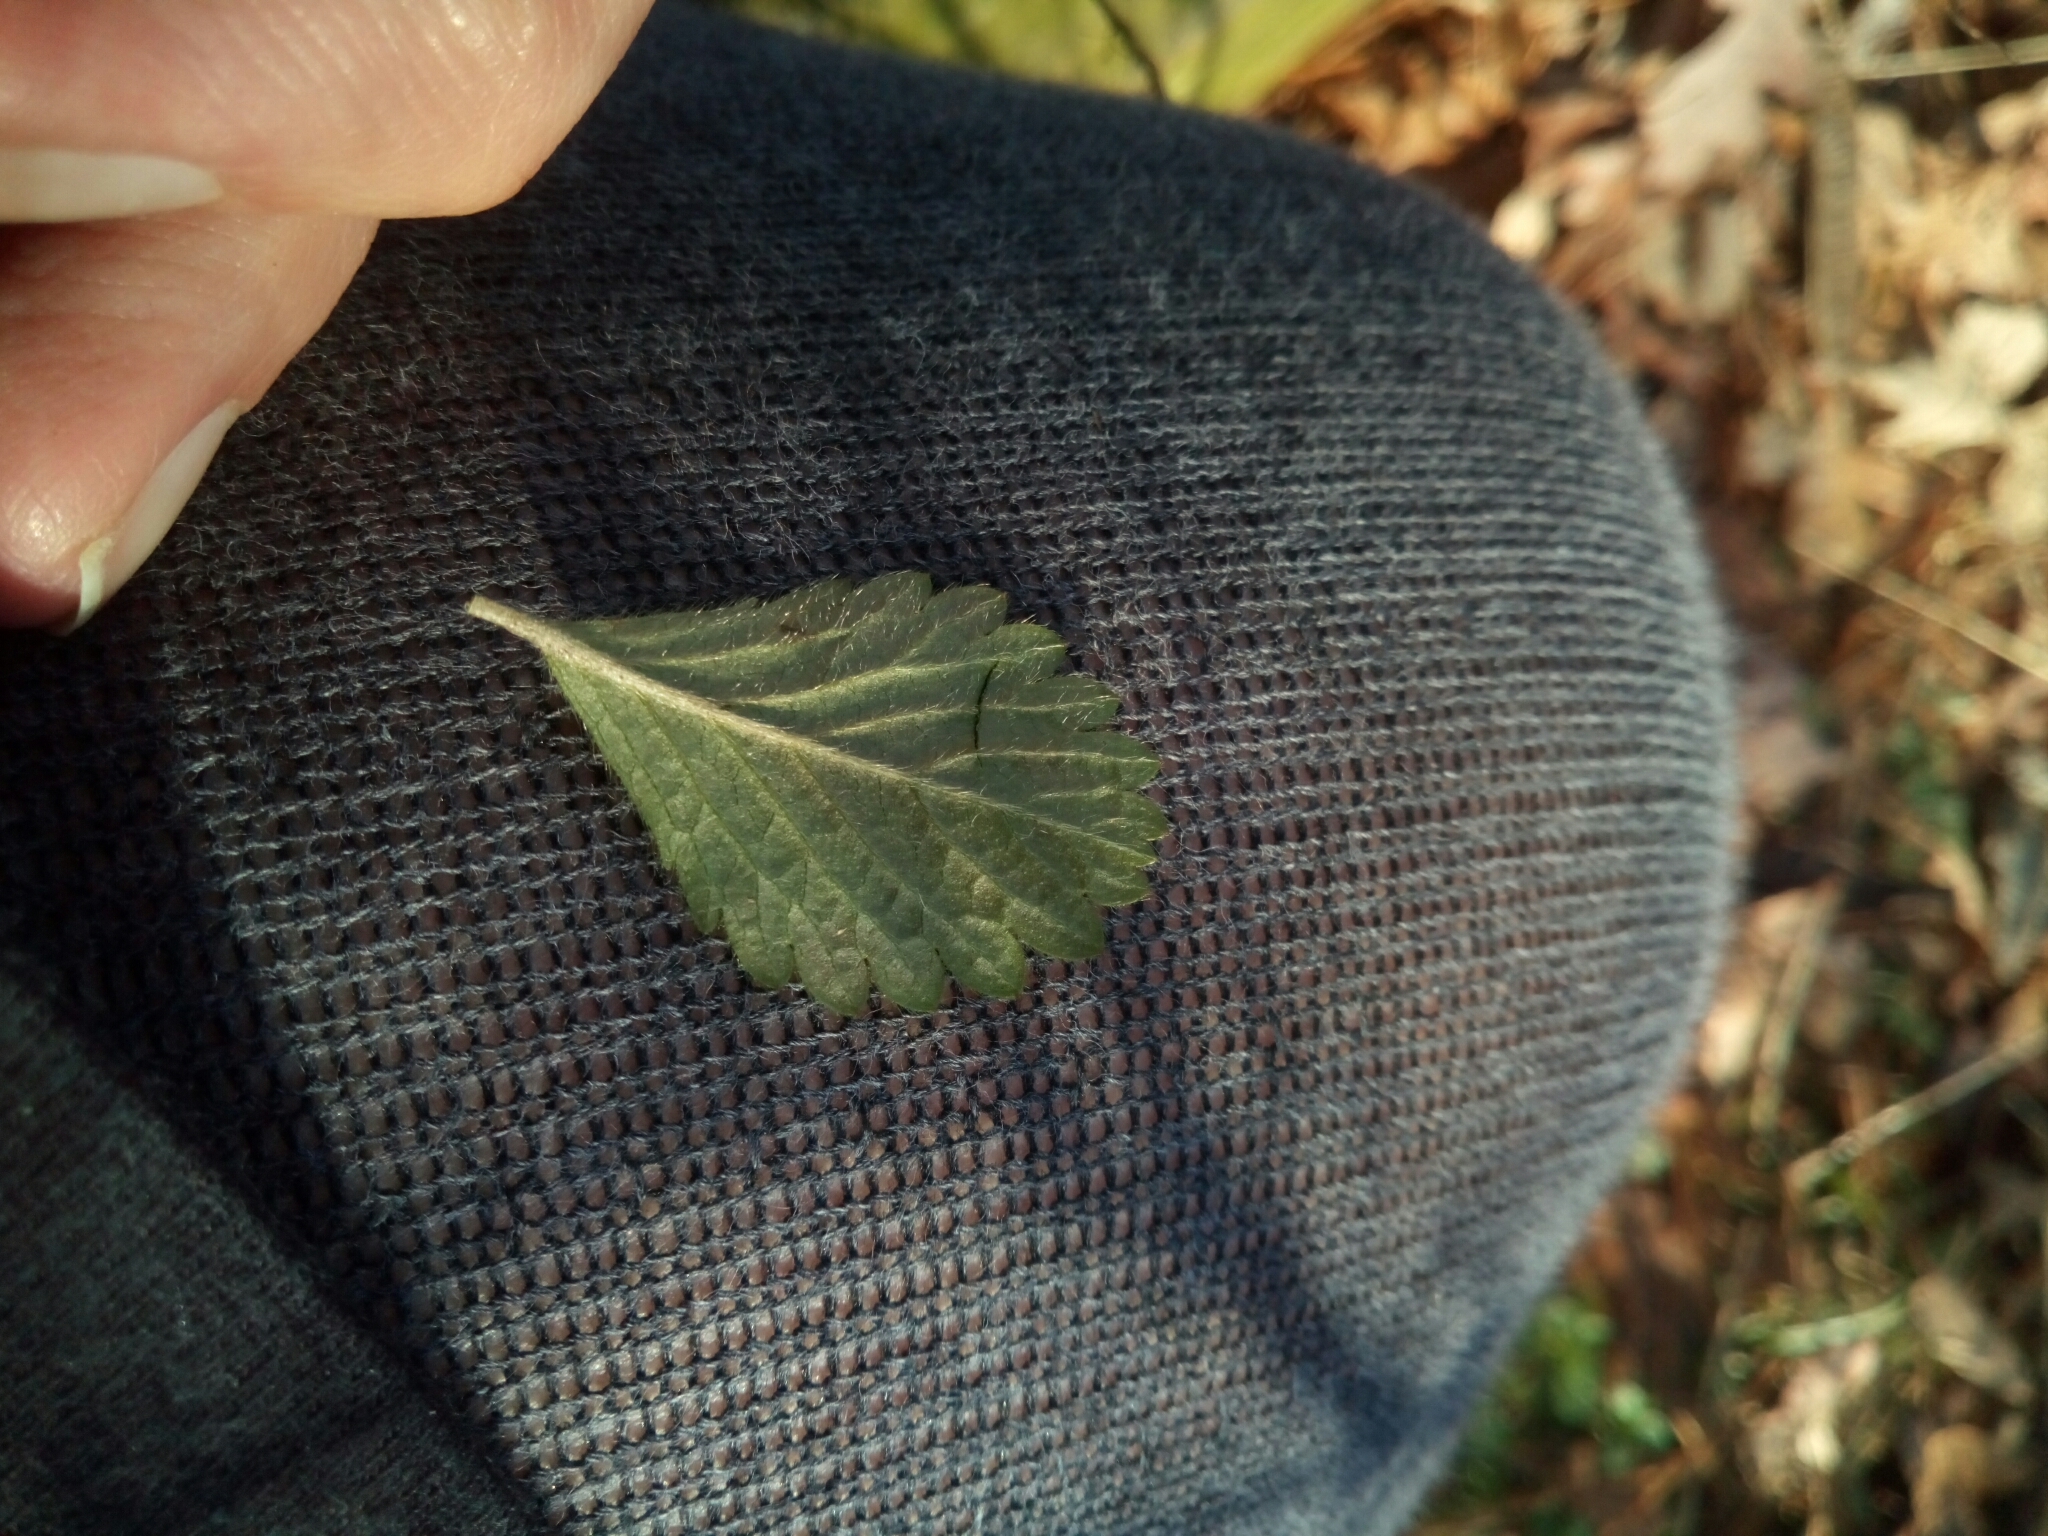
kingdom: Plantae
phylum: Tracheophyta
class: Magnoliopsida
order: Rosales
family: Rosaceae
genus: Potentilla
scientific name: Potentilla indica
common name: Yellow-flowered strawberry
